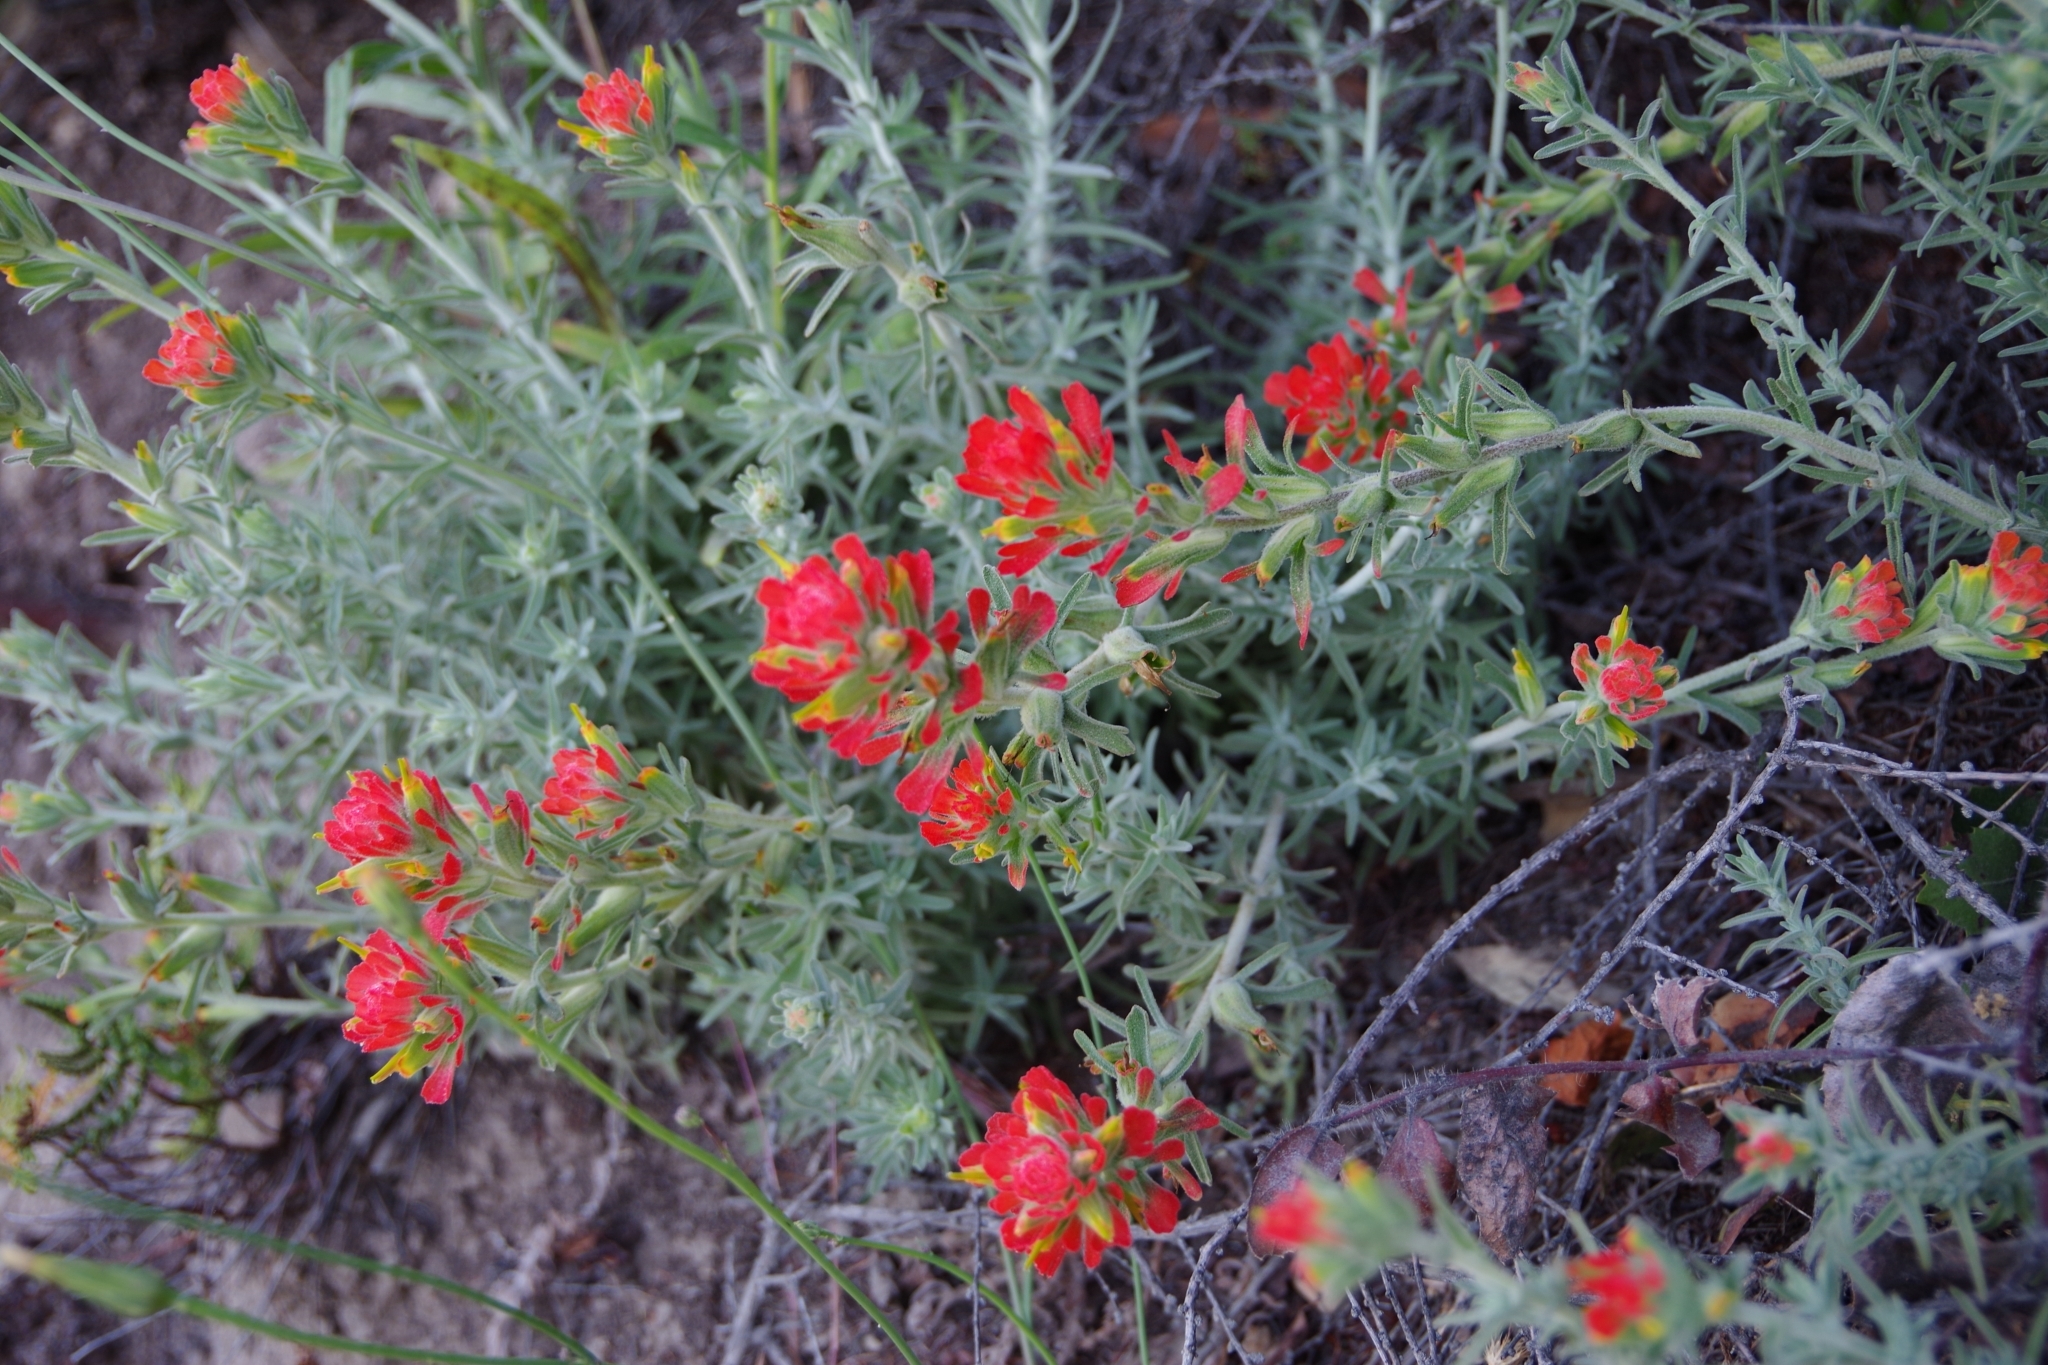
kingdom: Plantae
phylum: Tracheophyta
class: Magnoliopsida
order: Lamiales
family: Orobanchaceae
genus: Castilleja
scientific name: Castilleja foliolosa
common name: Woolly indian paintbrush
